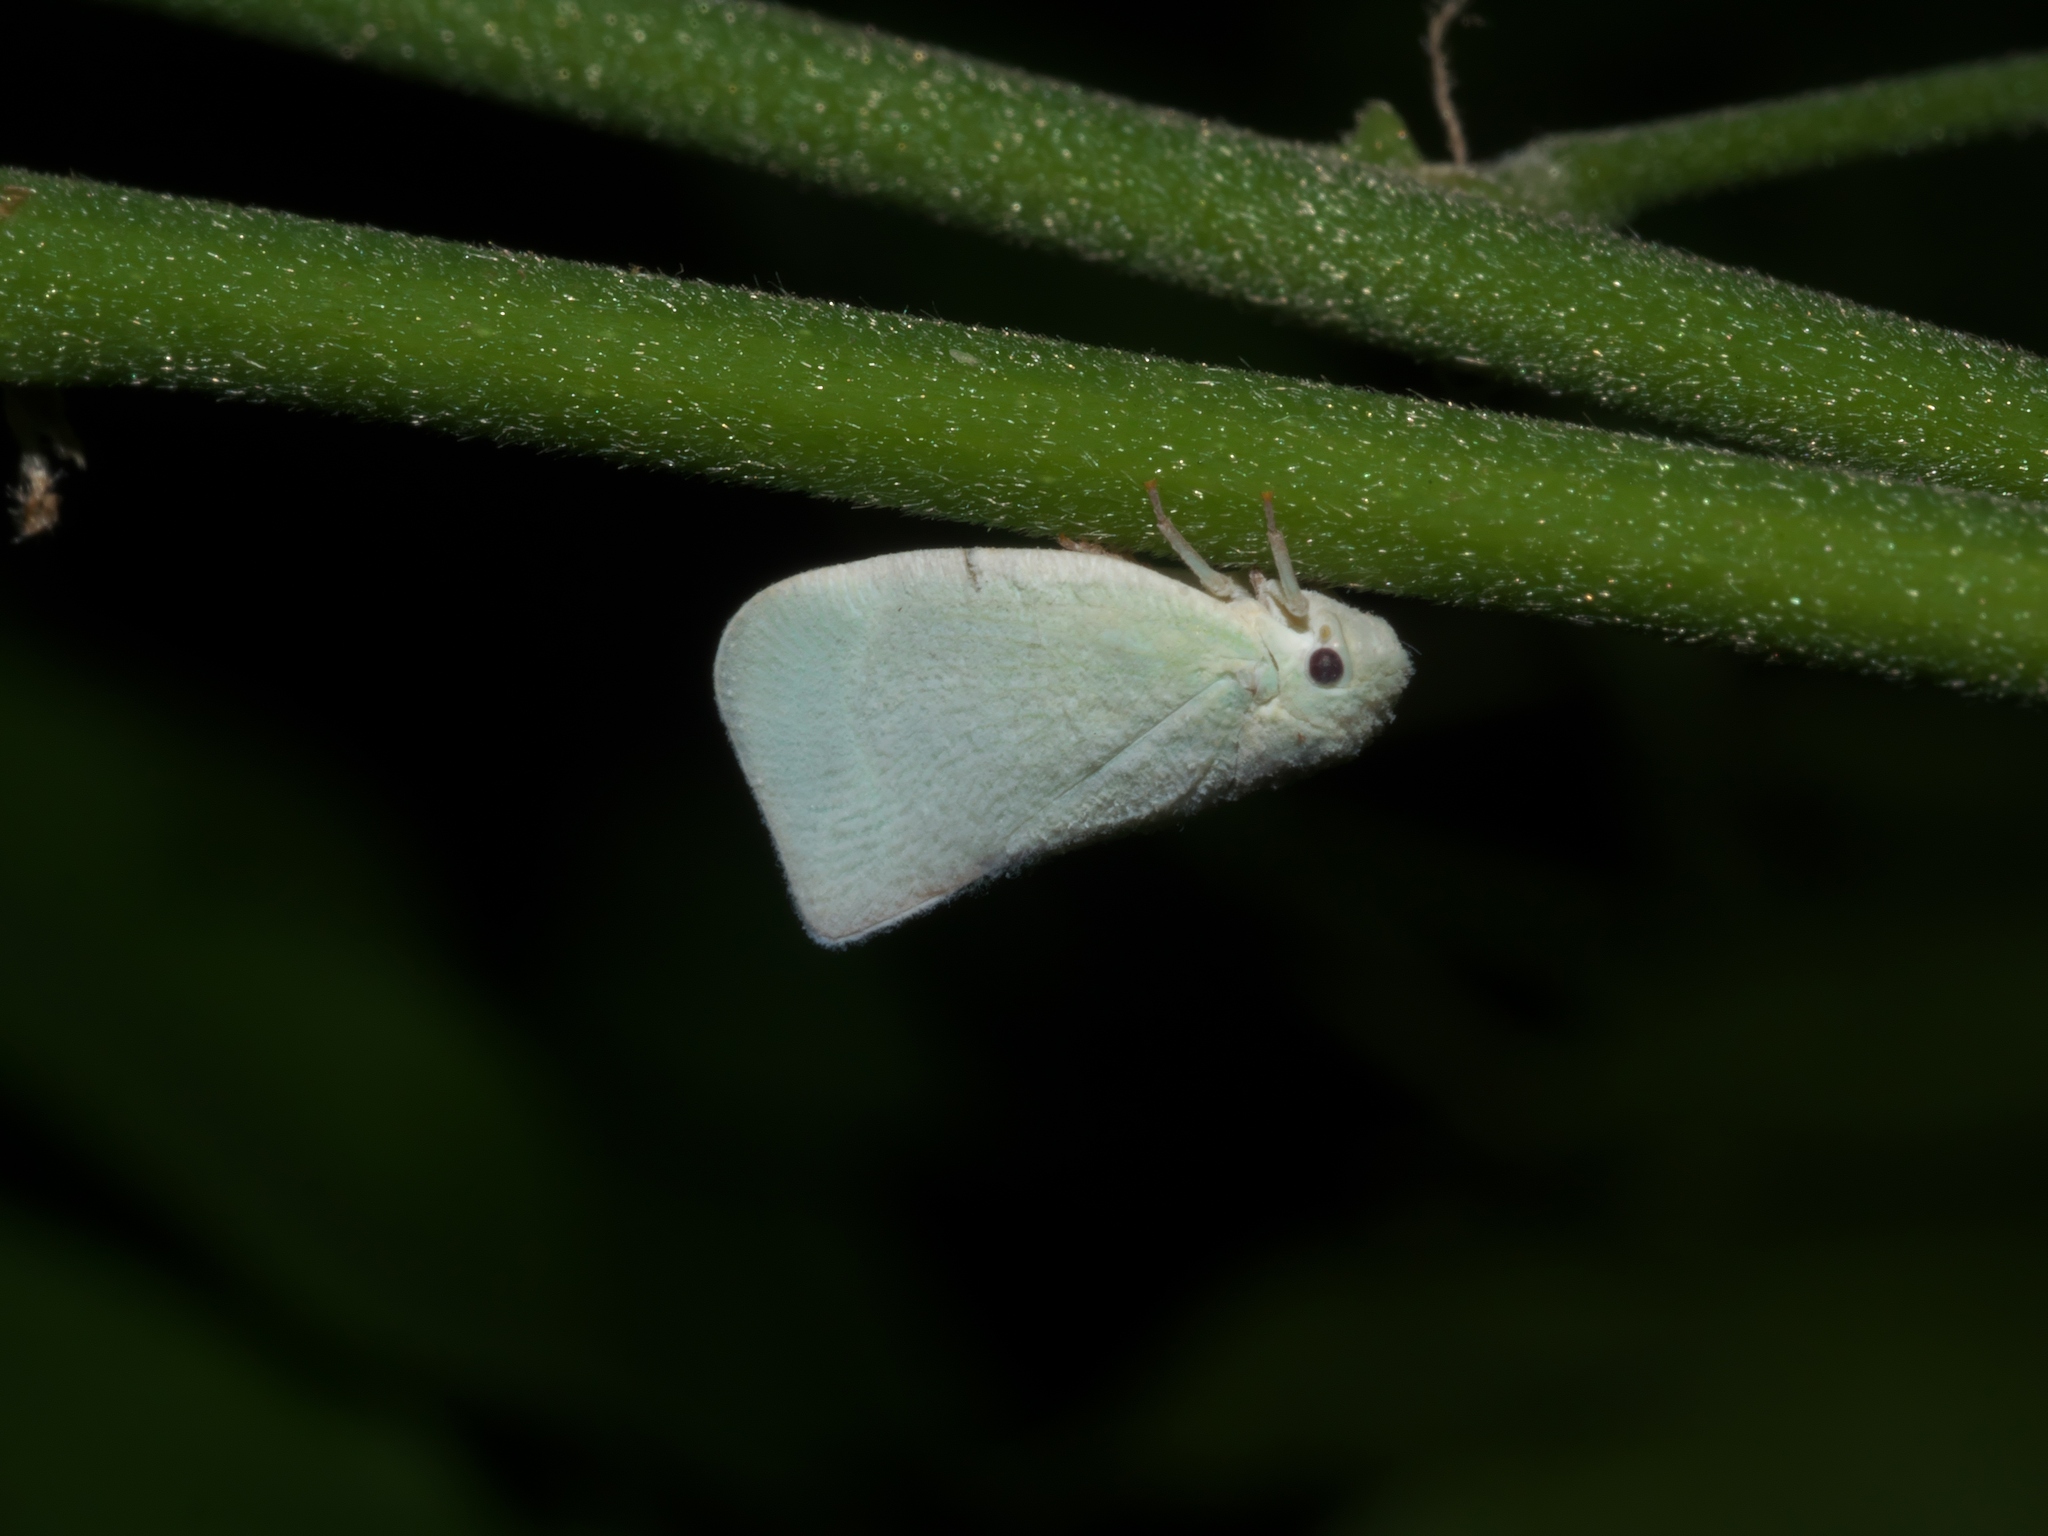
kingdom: Animalia
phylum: Arthropoda
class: Insecta
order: Hemiptera
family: Flatidae
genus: Flatormenis
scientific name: Flatormenis proxima
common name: Northern flatid planthopper
